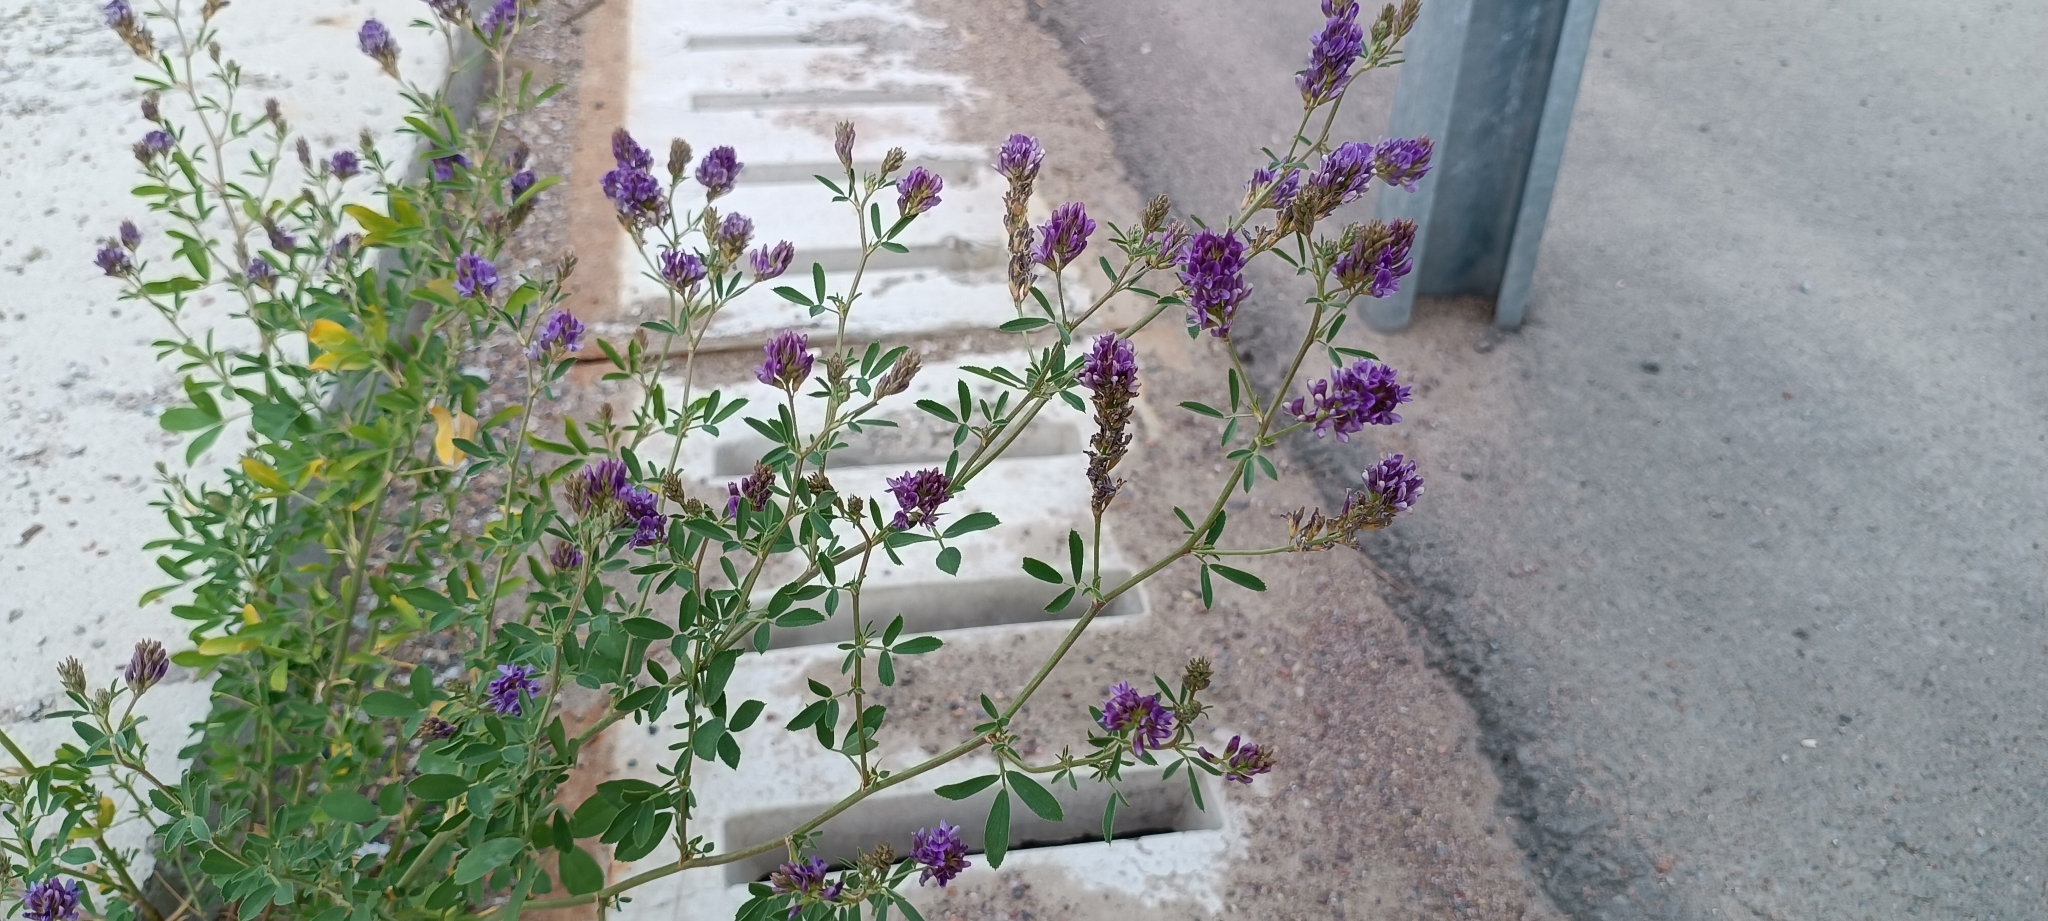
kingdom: Plantae
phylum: Tracheophyta
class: Magnoliopsida
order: Fabales
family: Fabaceae
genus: Medicago
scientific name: Medicago sativa
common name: Alfalfa
